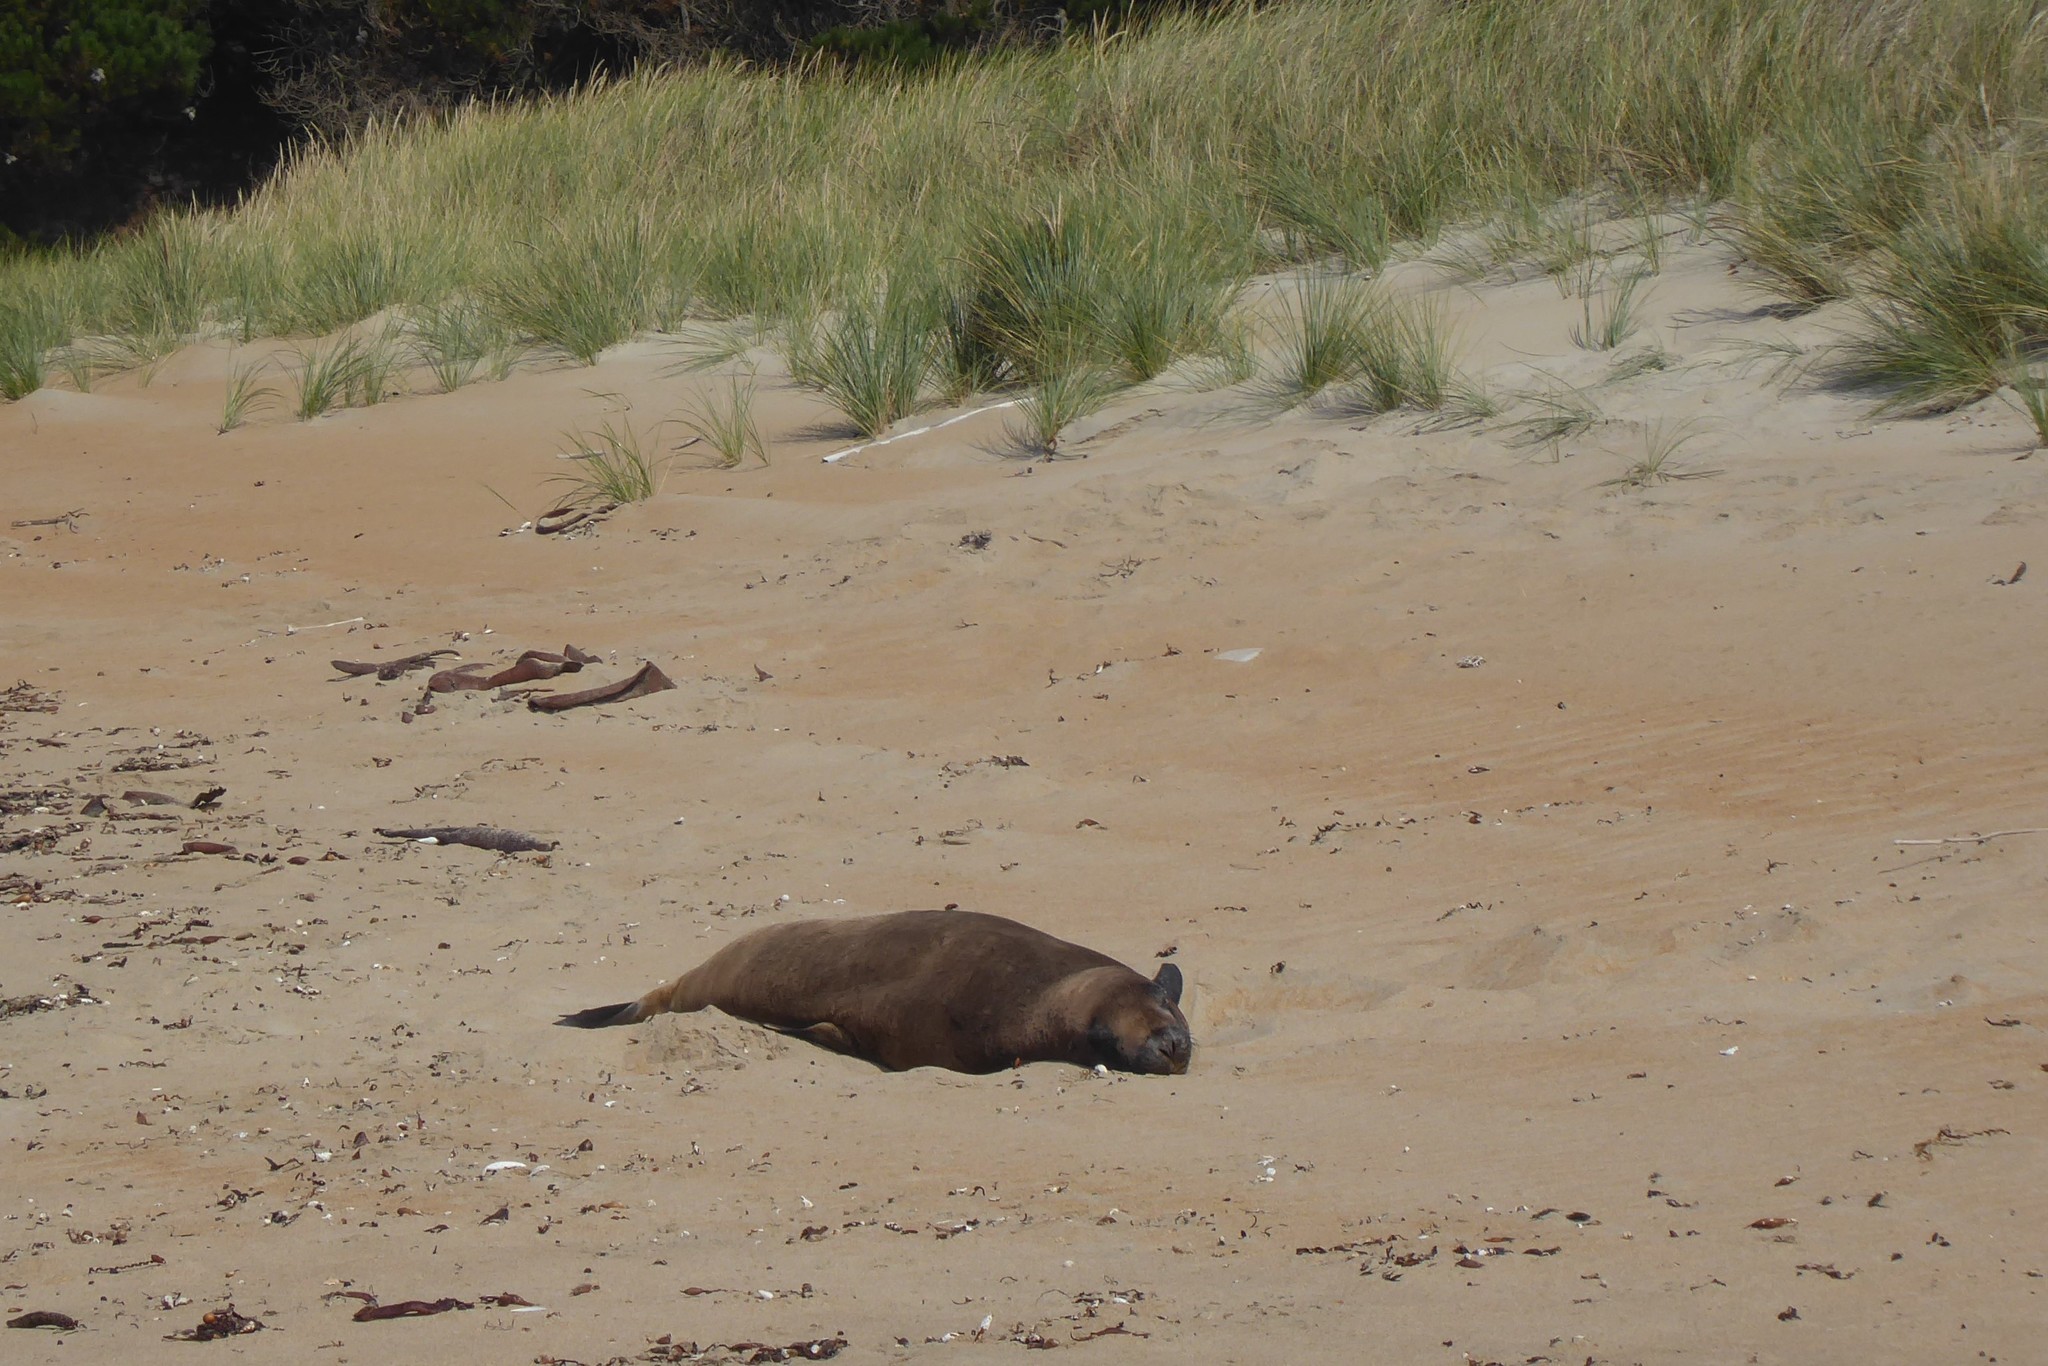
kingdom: Animalia
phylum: Chordata
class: Mammalia
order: Carnivora
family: Otariidae
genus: Phocarctos
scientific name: Phocarctos hookeri
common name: New zealand sea lion
